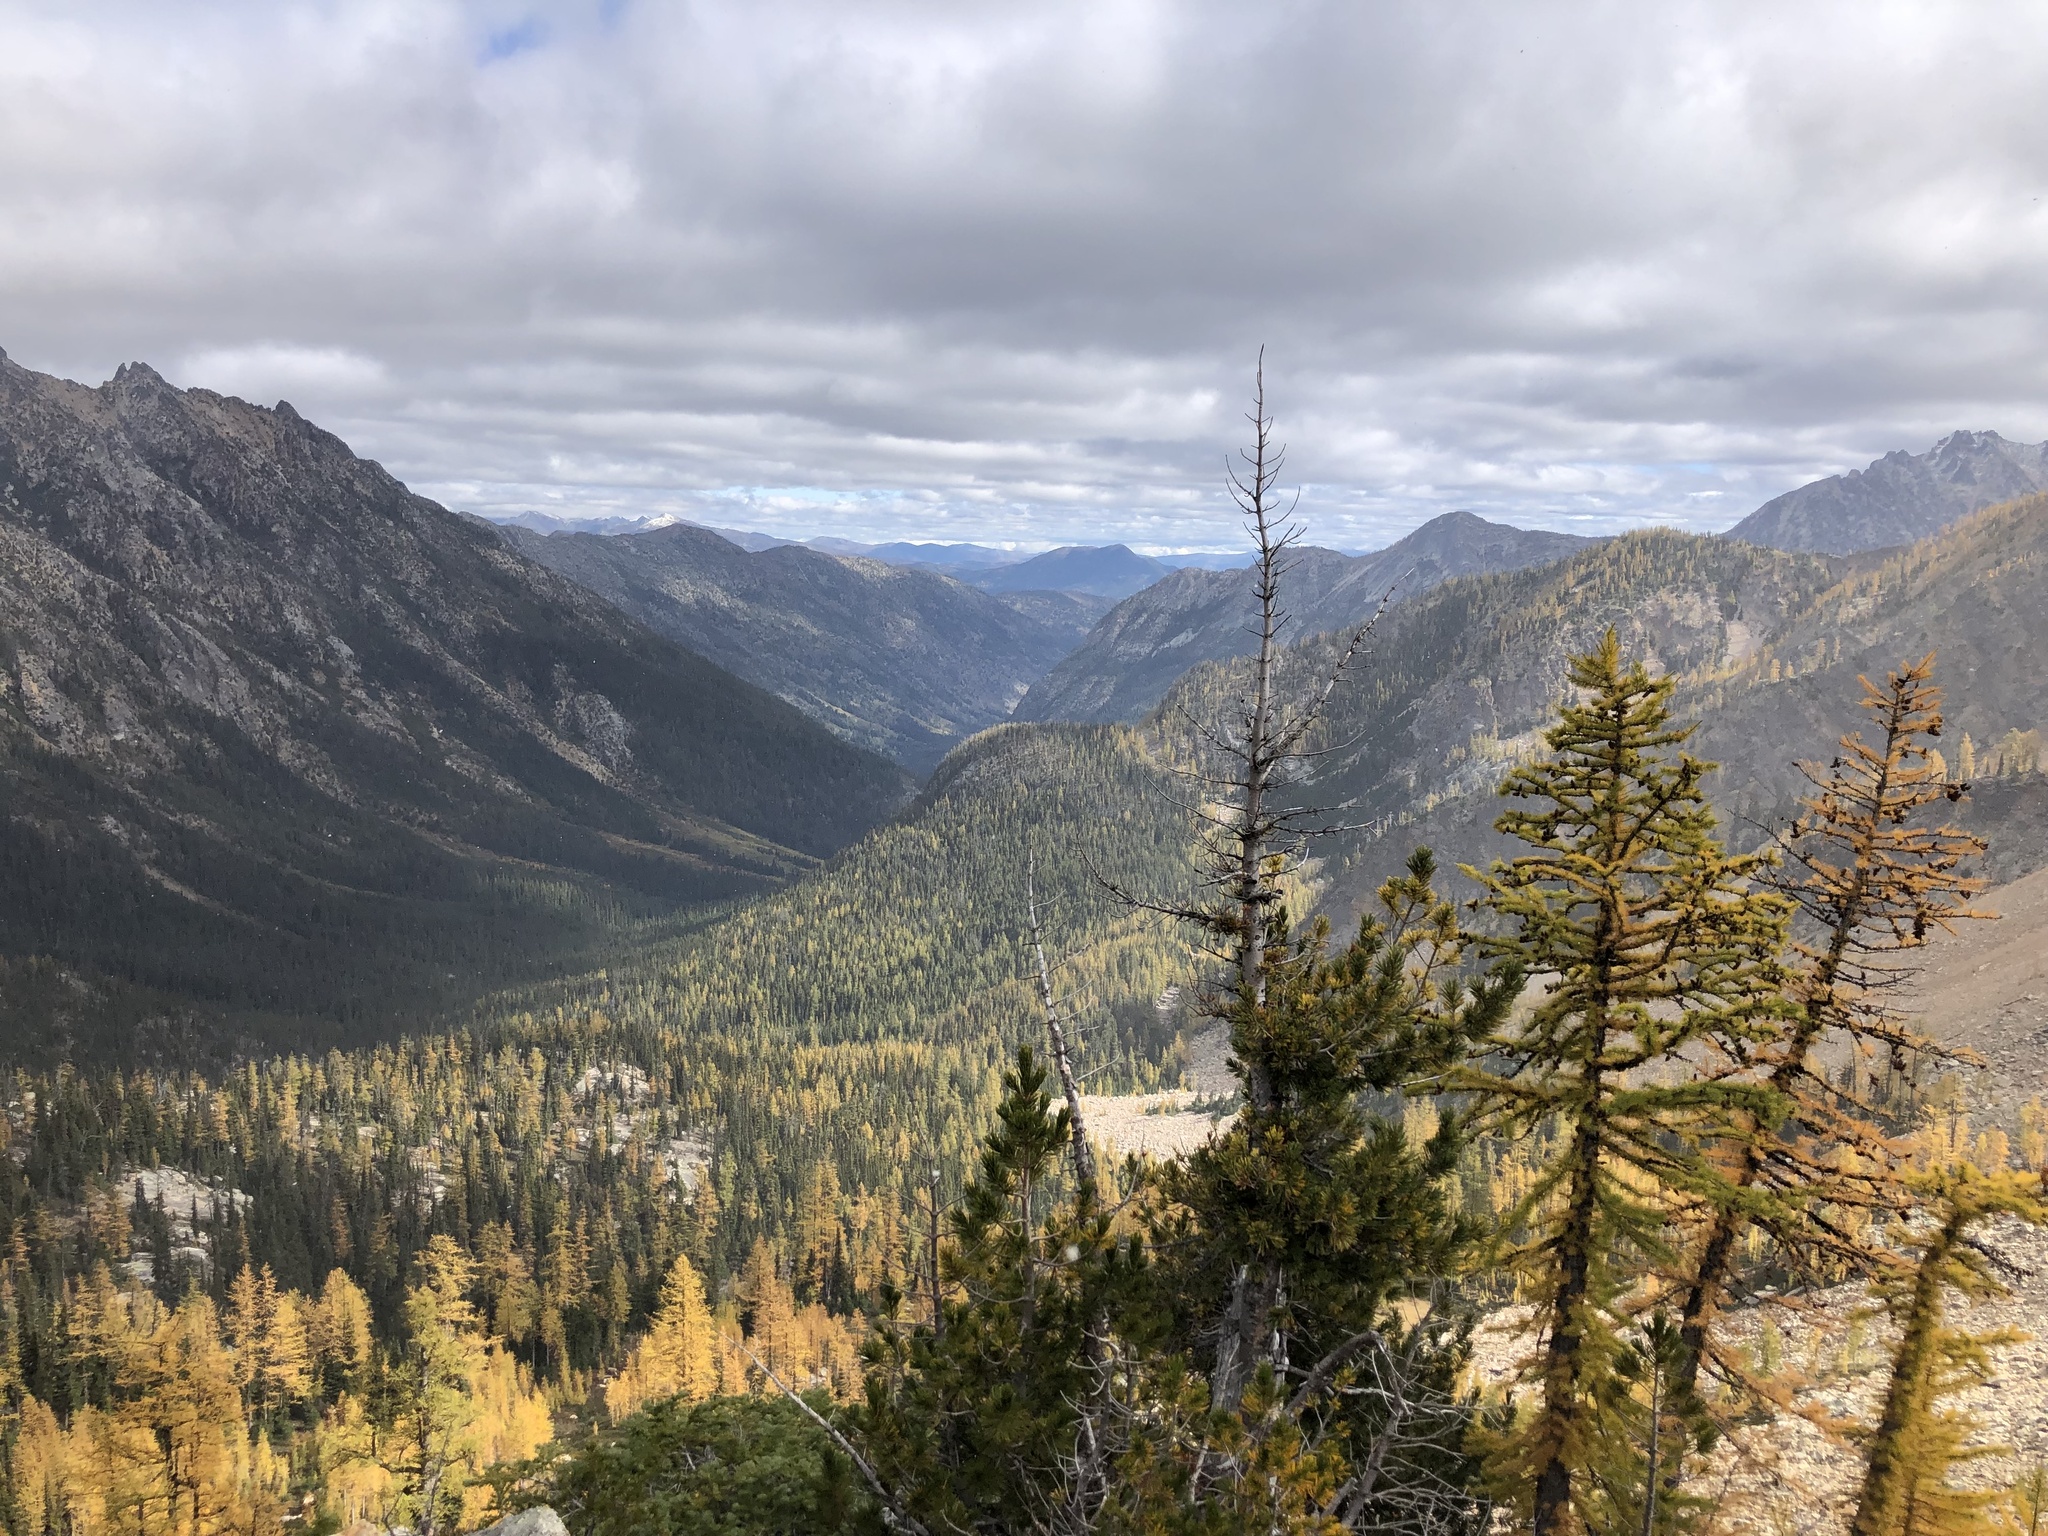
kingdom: Plantae
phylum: Tracheophyta
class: Pinopsida
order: Pinales
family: Pinaceae
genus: Pinus
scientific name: Pinus albicaulis
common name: Whitebark pine
